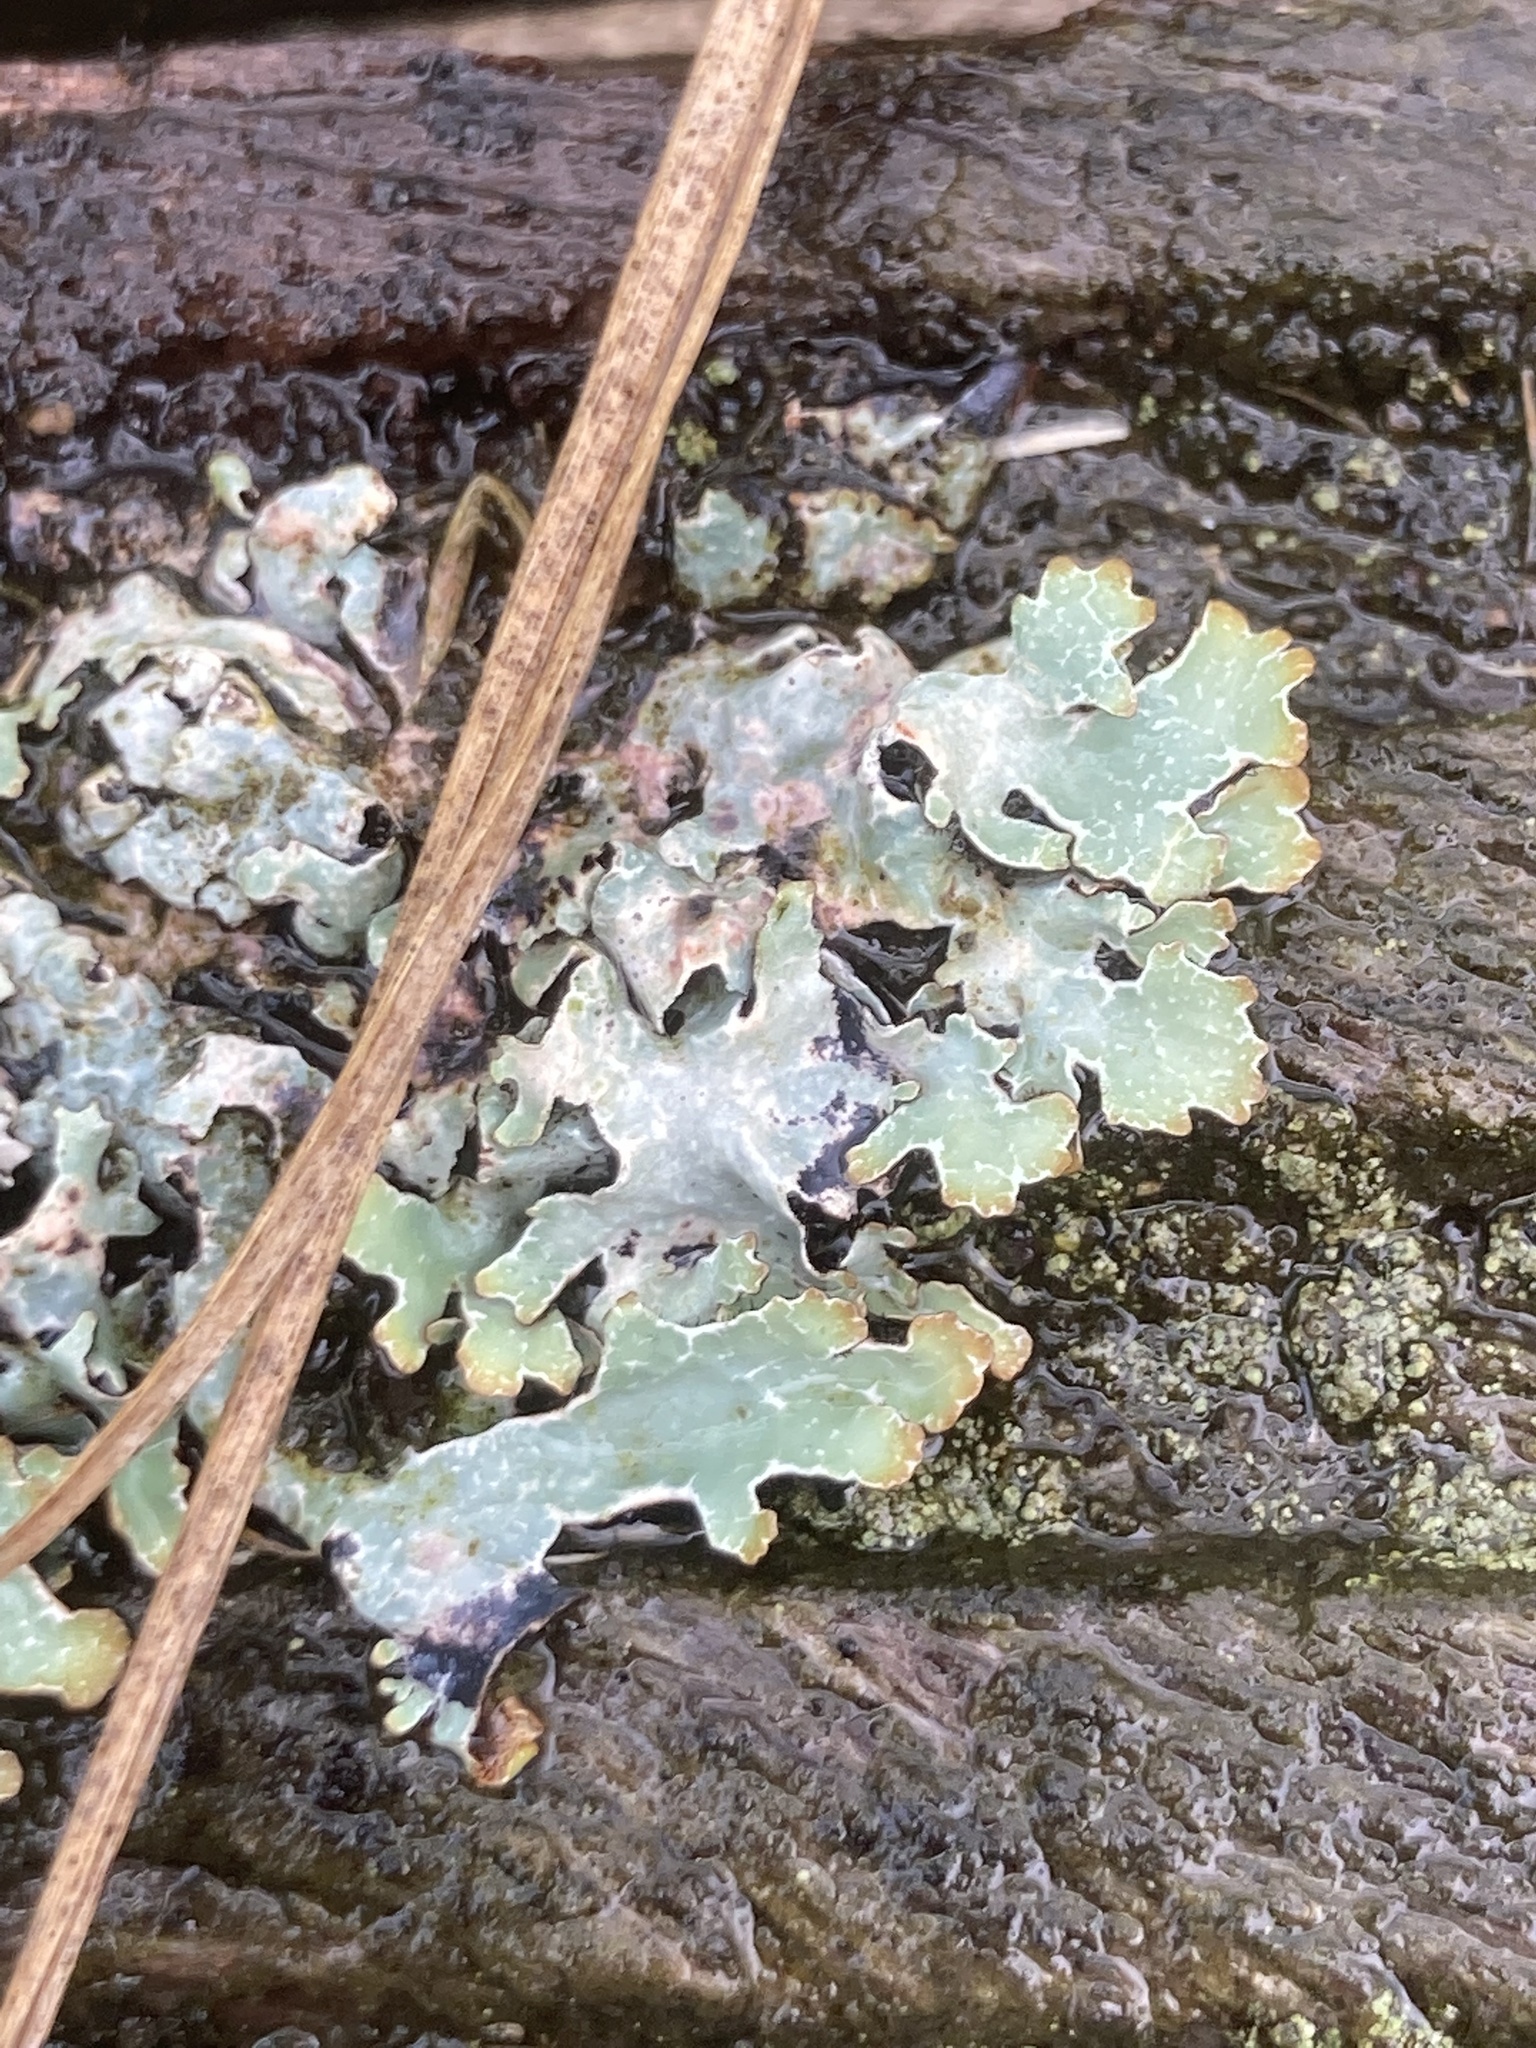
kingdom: Fungi
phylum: Ascomycota
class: Lecanoromycetes
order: Lecanorales
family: Parmeliaceae
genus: Parmelia
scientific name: Parmelia sulcata
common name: Netted shield lichen
